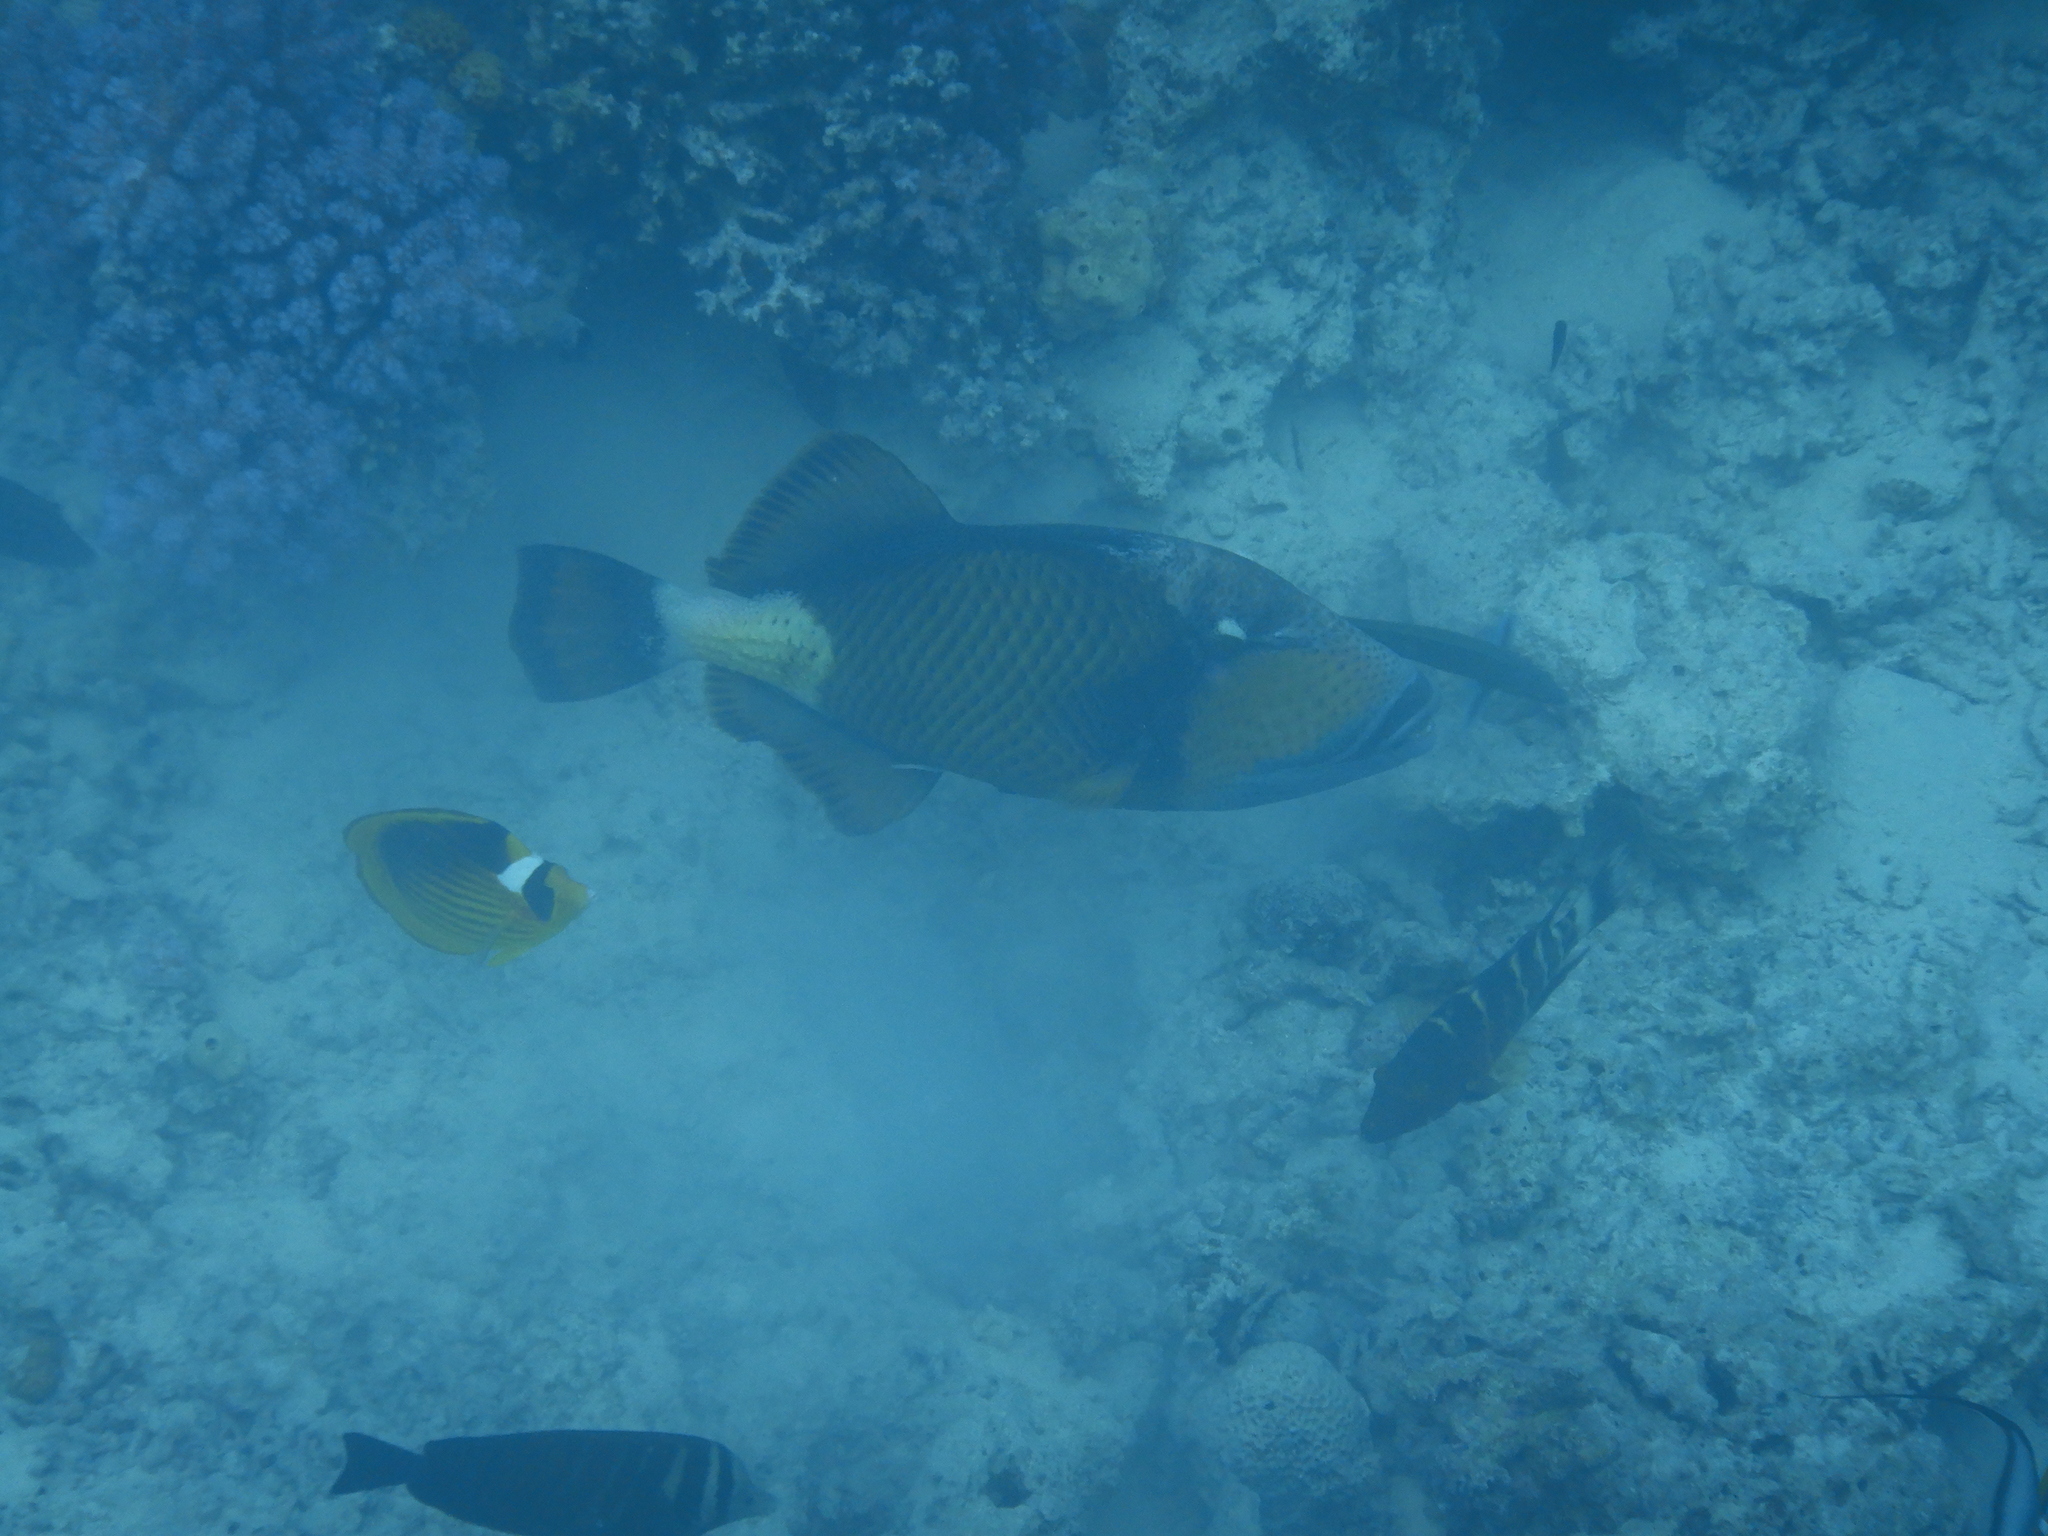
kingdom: Animalia
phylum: Chordata
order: Tetraodontiformes
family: Balistidae
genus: Balistoides
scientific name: Balistoides viridescens
